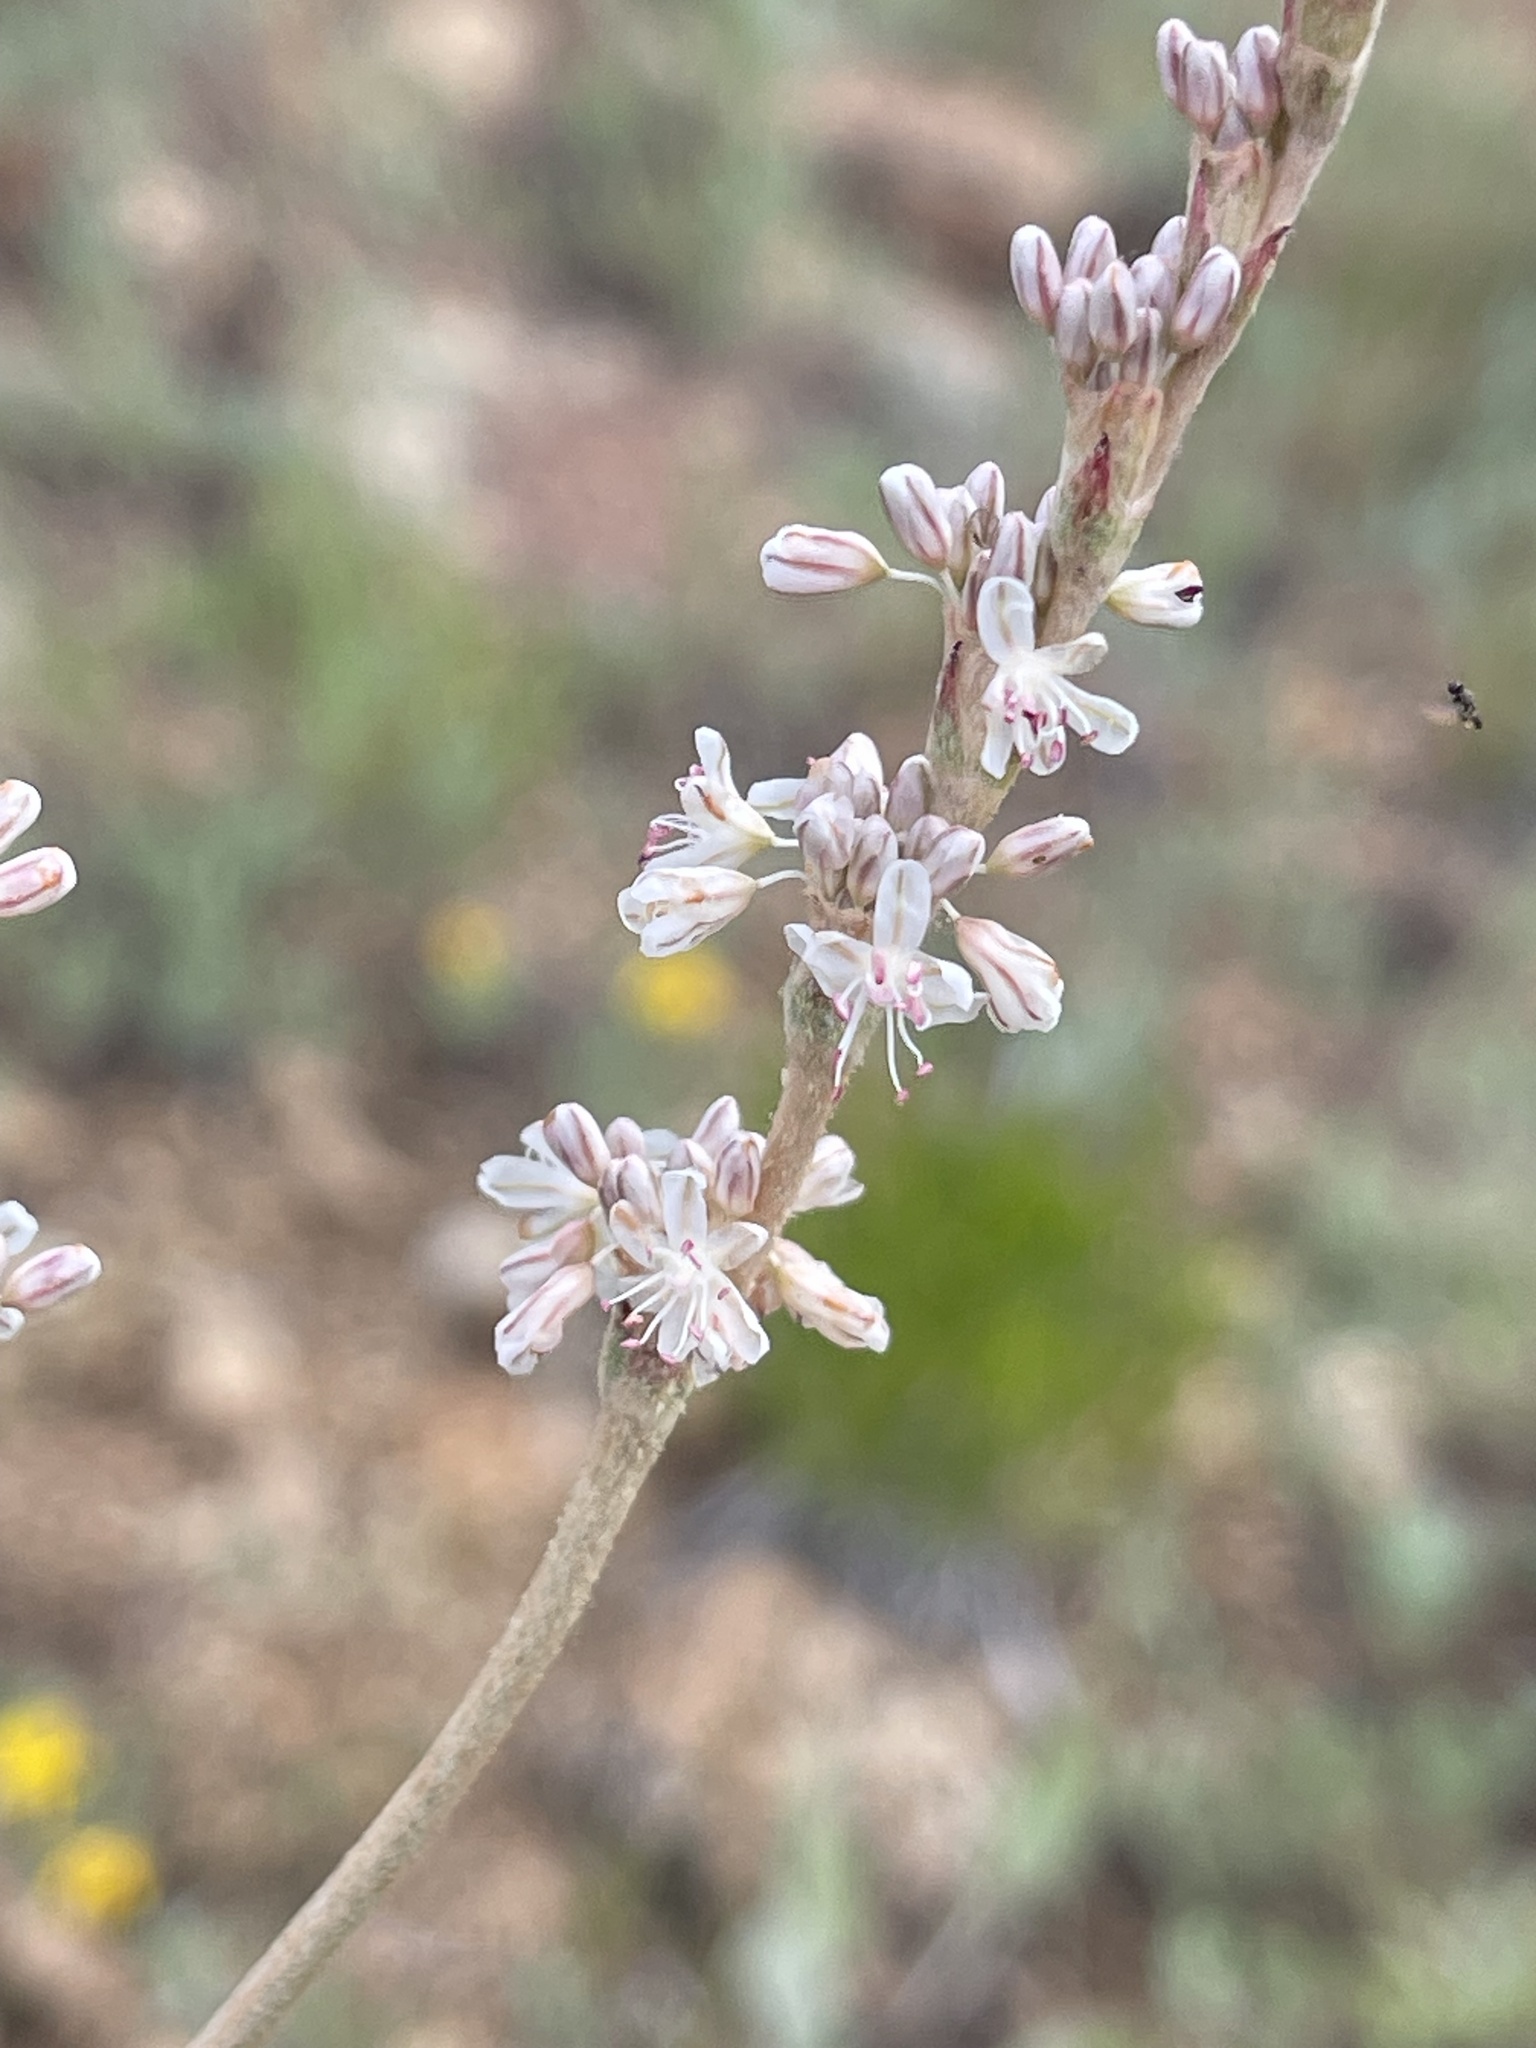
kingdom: Plantae
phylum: Tracheophyta
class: Magnoliopsida
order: Caryophyllales
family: Polygonaceae
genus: Eriogonum
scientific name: Eriogonum racemosum
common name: Redroot wild buckwheat
